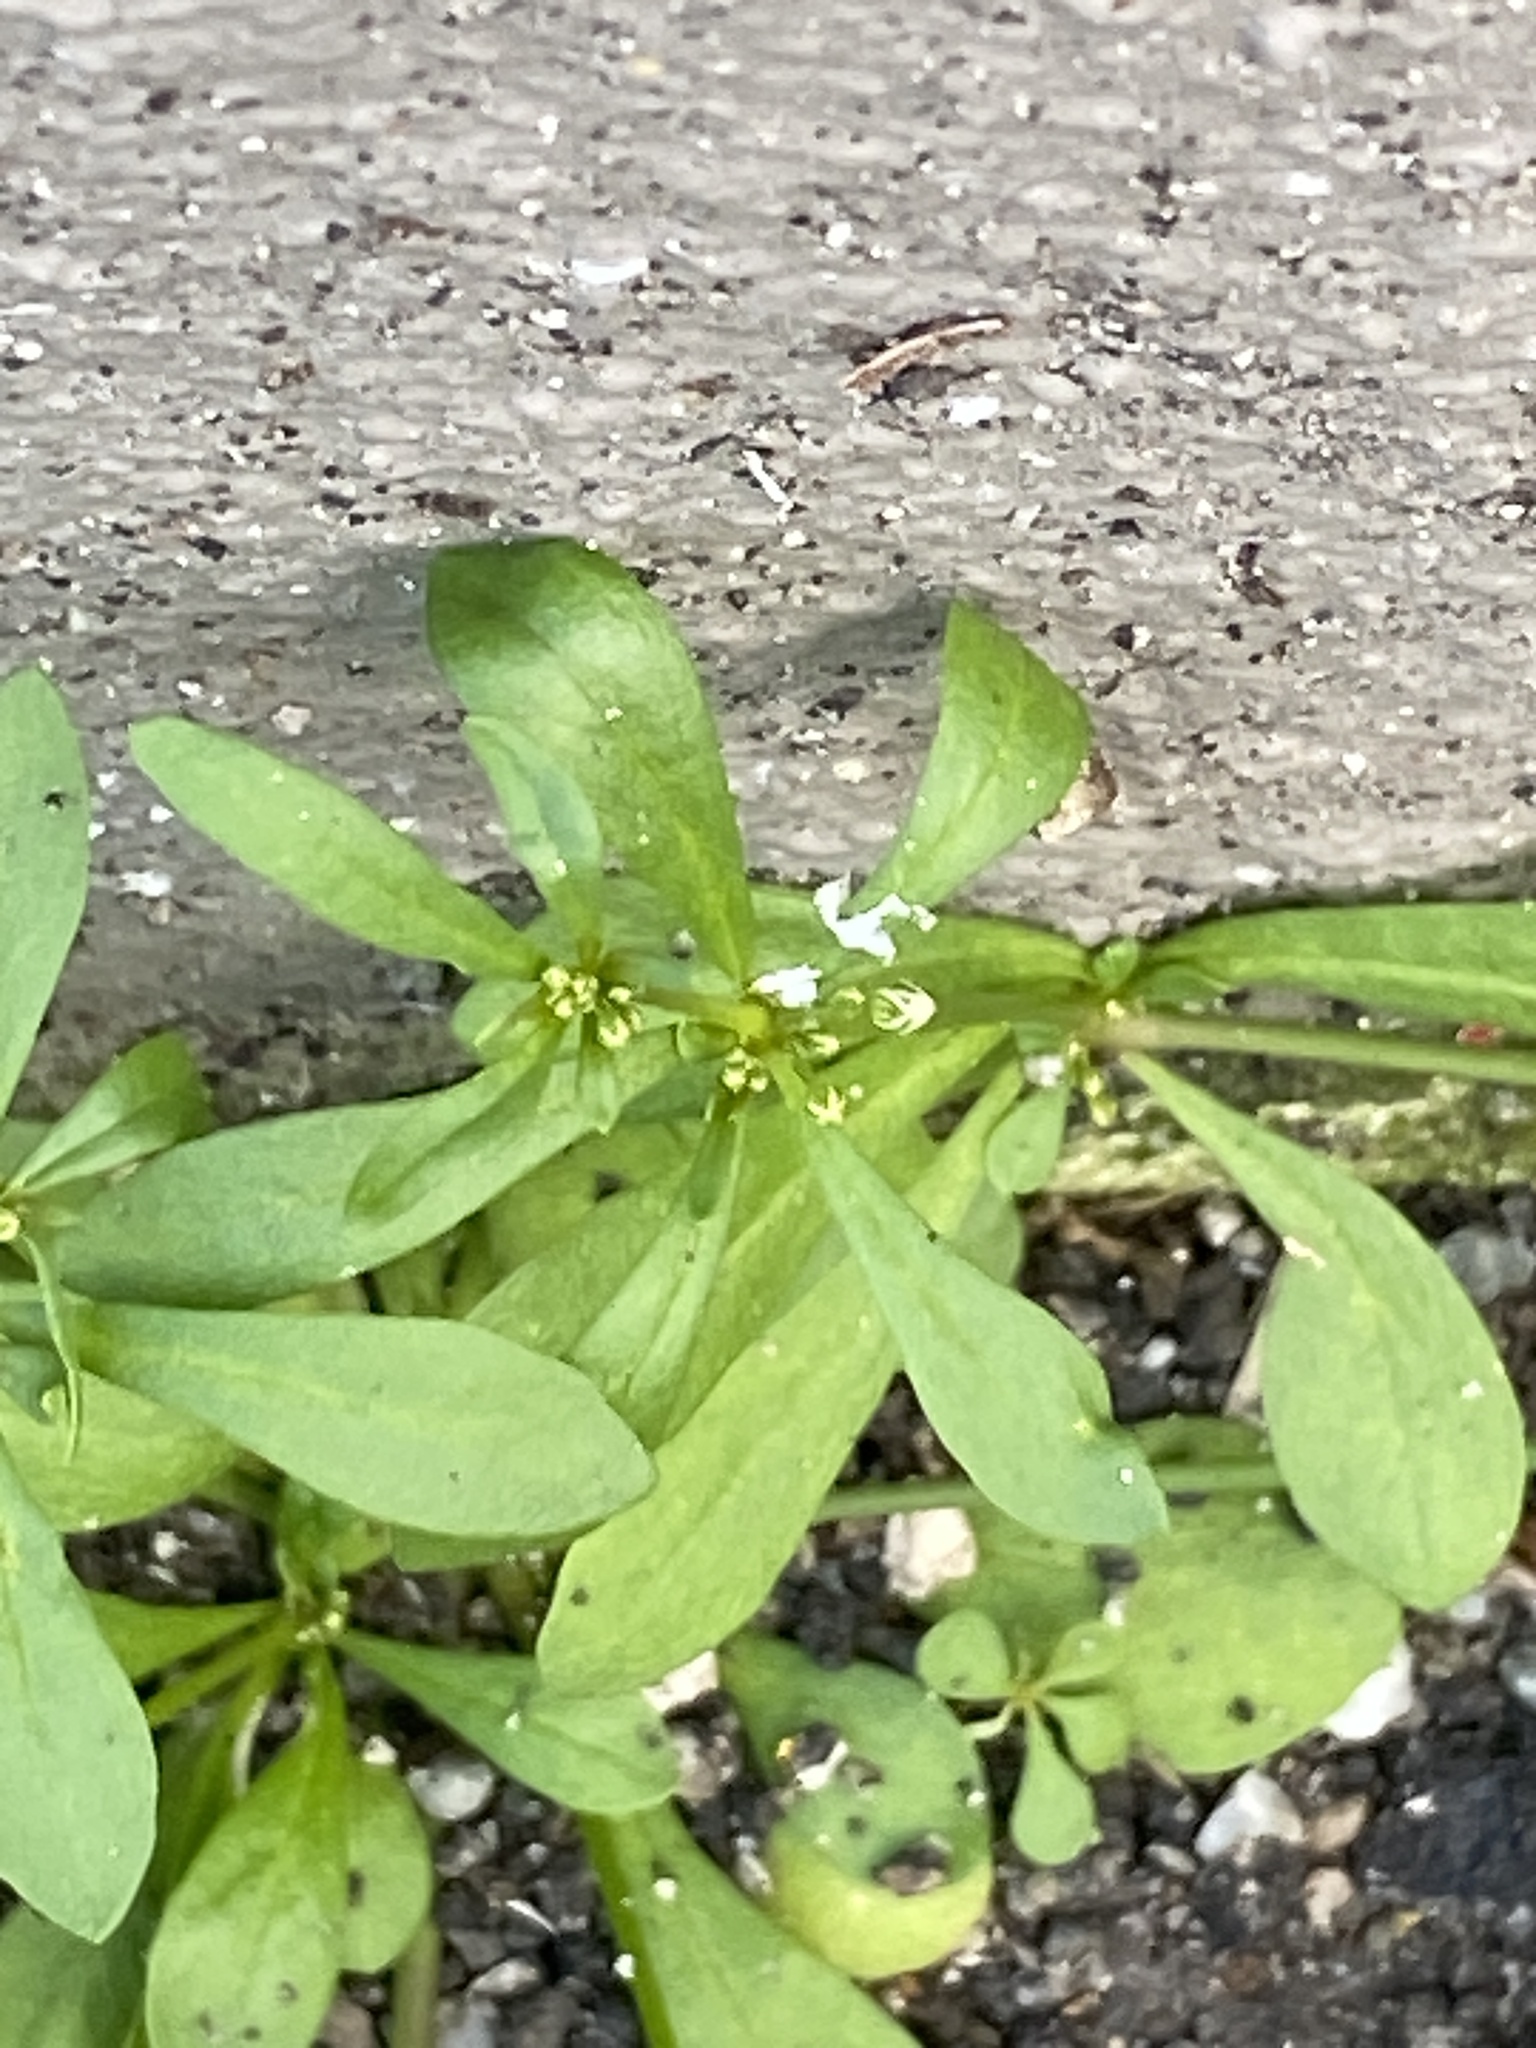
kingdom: Plantae
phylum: Tracheophyta
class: Magnoliopsida
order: Caryophyllales
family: Molluginaceae
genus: Mollugo
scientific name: Mollugo verticillata
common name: Green carpetweed
